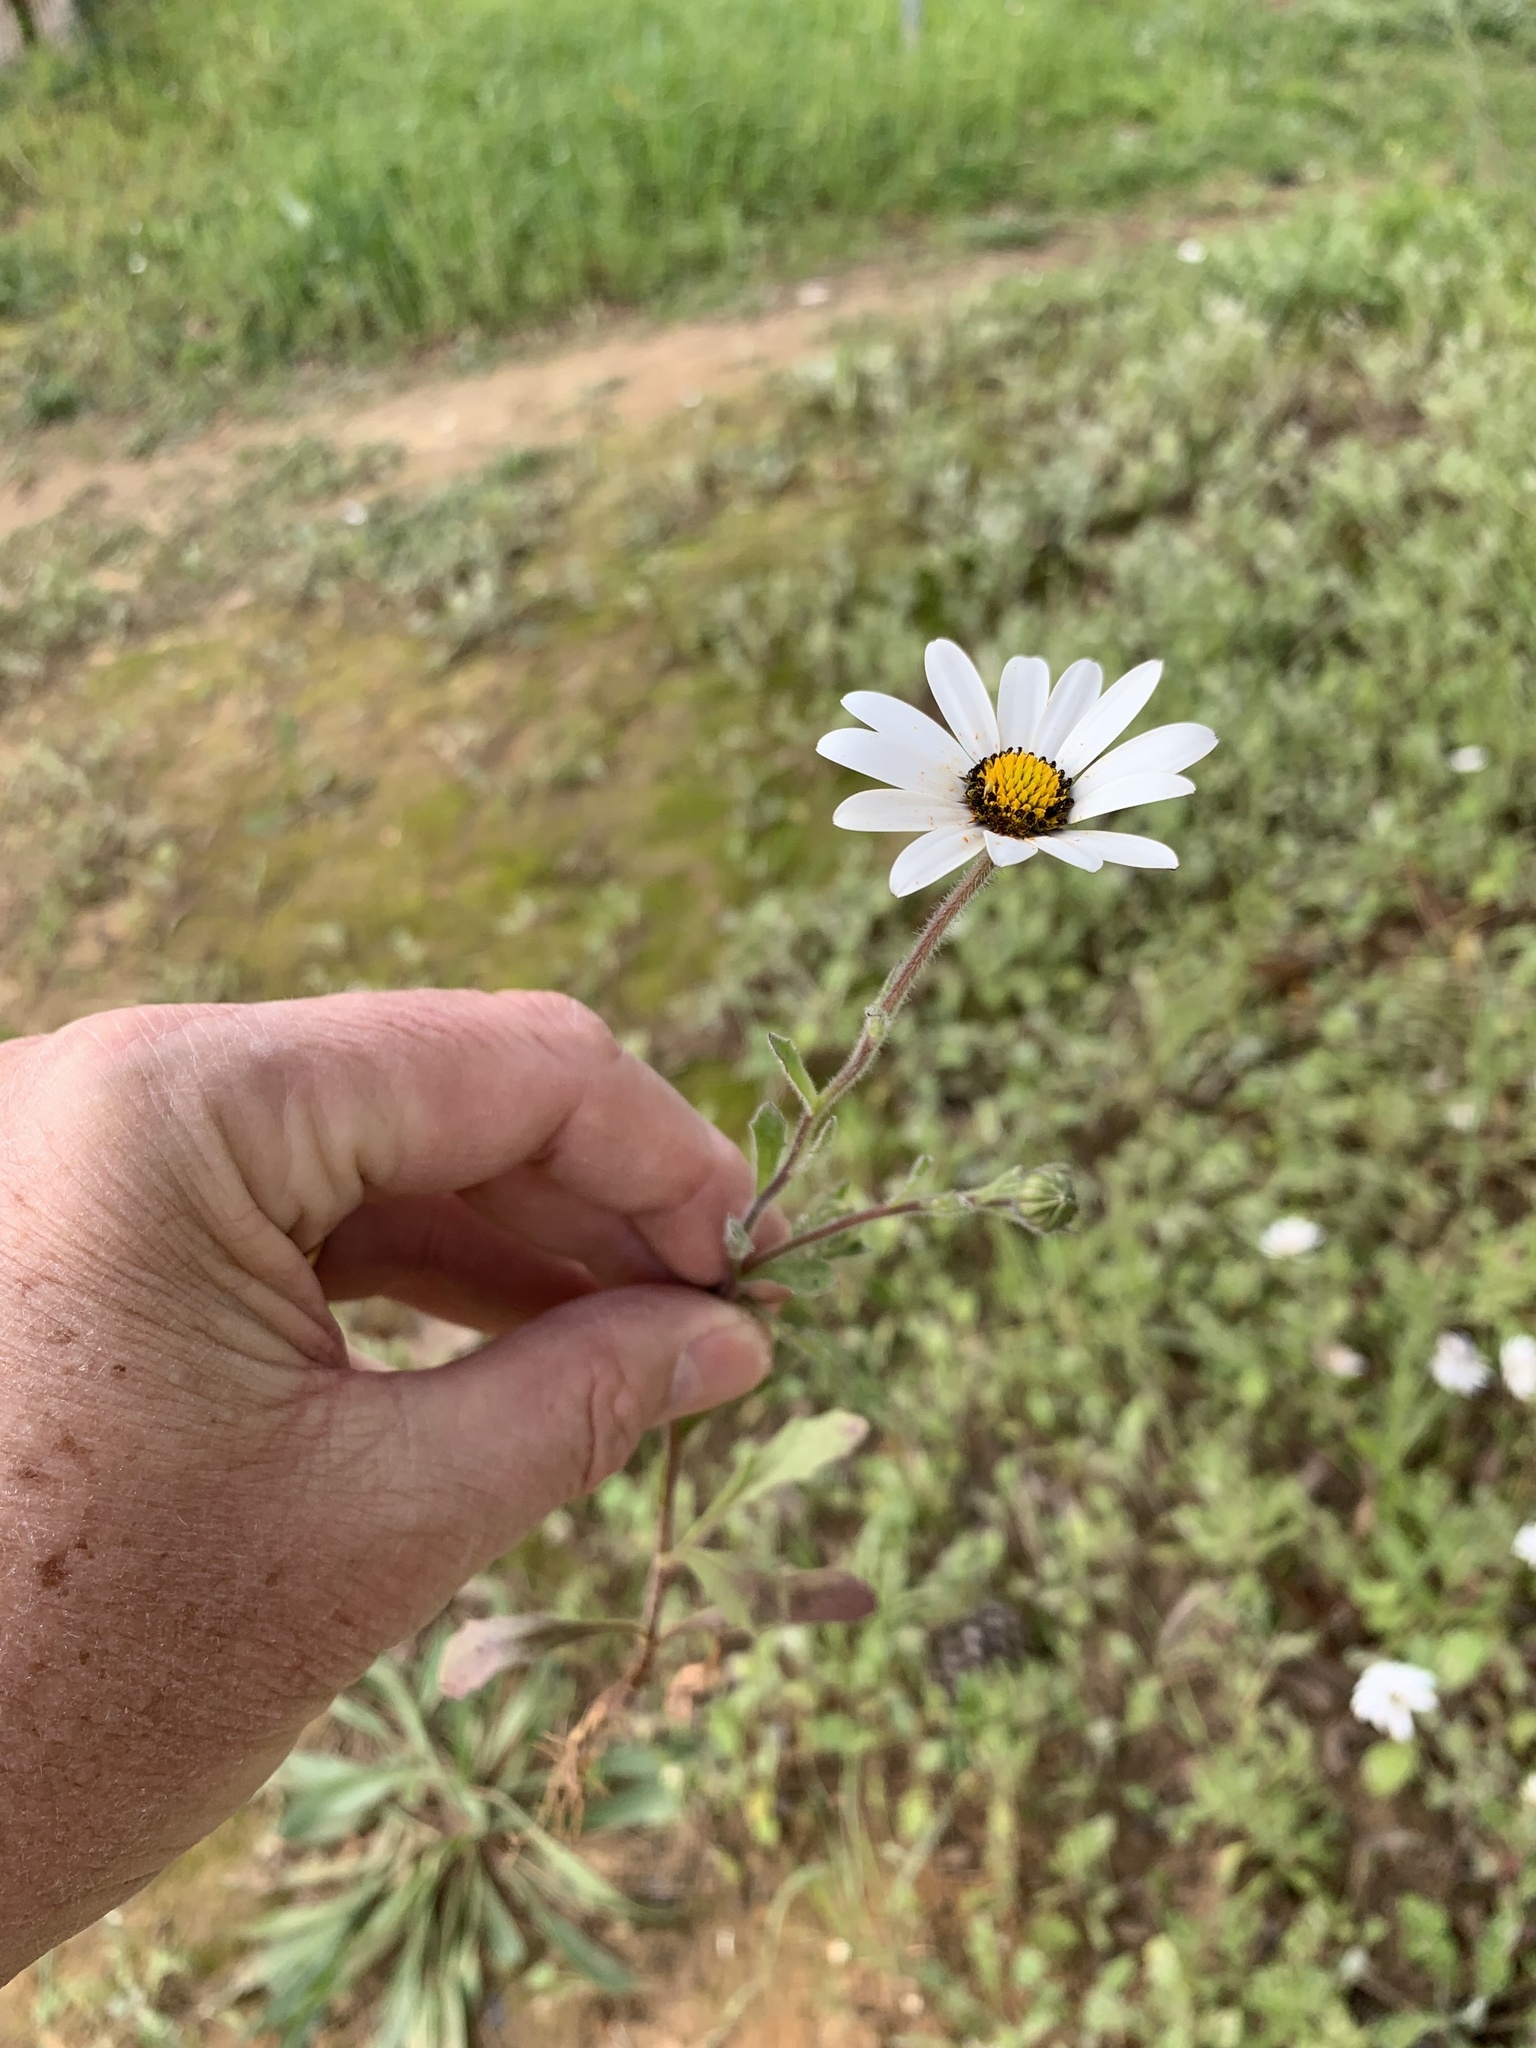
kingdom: Plantae
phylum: Tracheophyta
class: Magnoliopsida
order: Asterales
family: Asteraceae
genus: Dimorphotheca
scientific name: Dimorphotheca pluvialis
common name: Weather prophet
